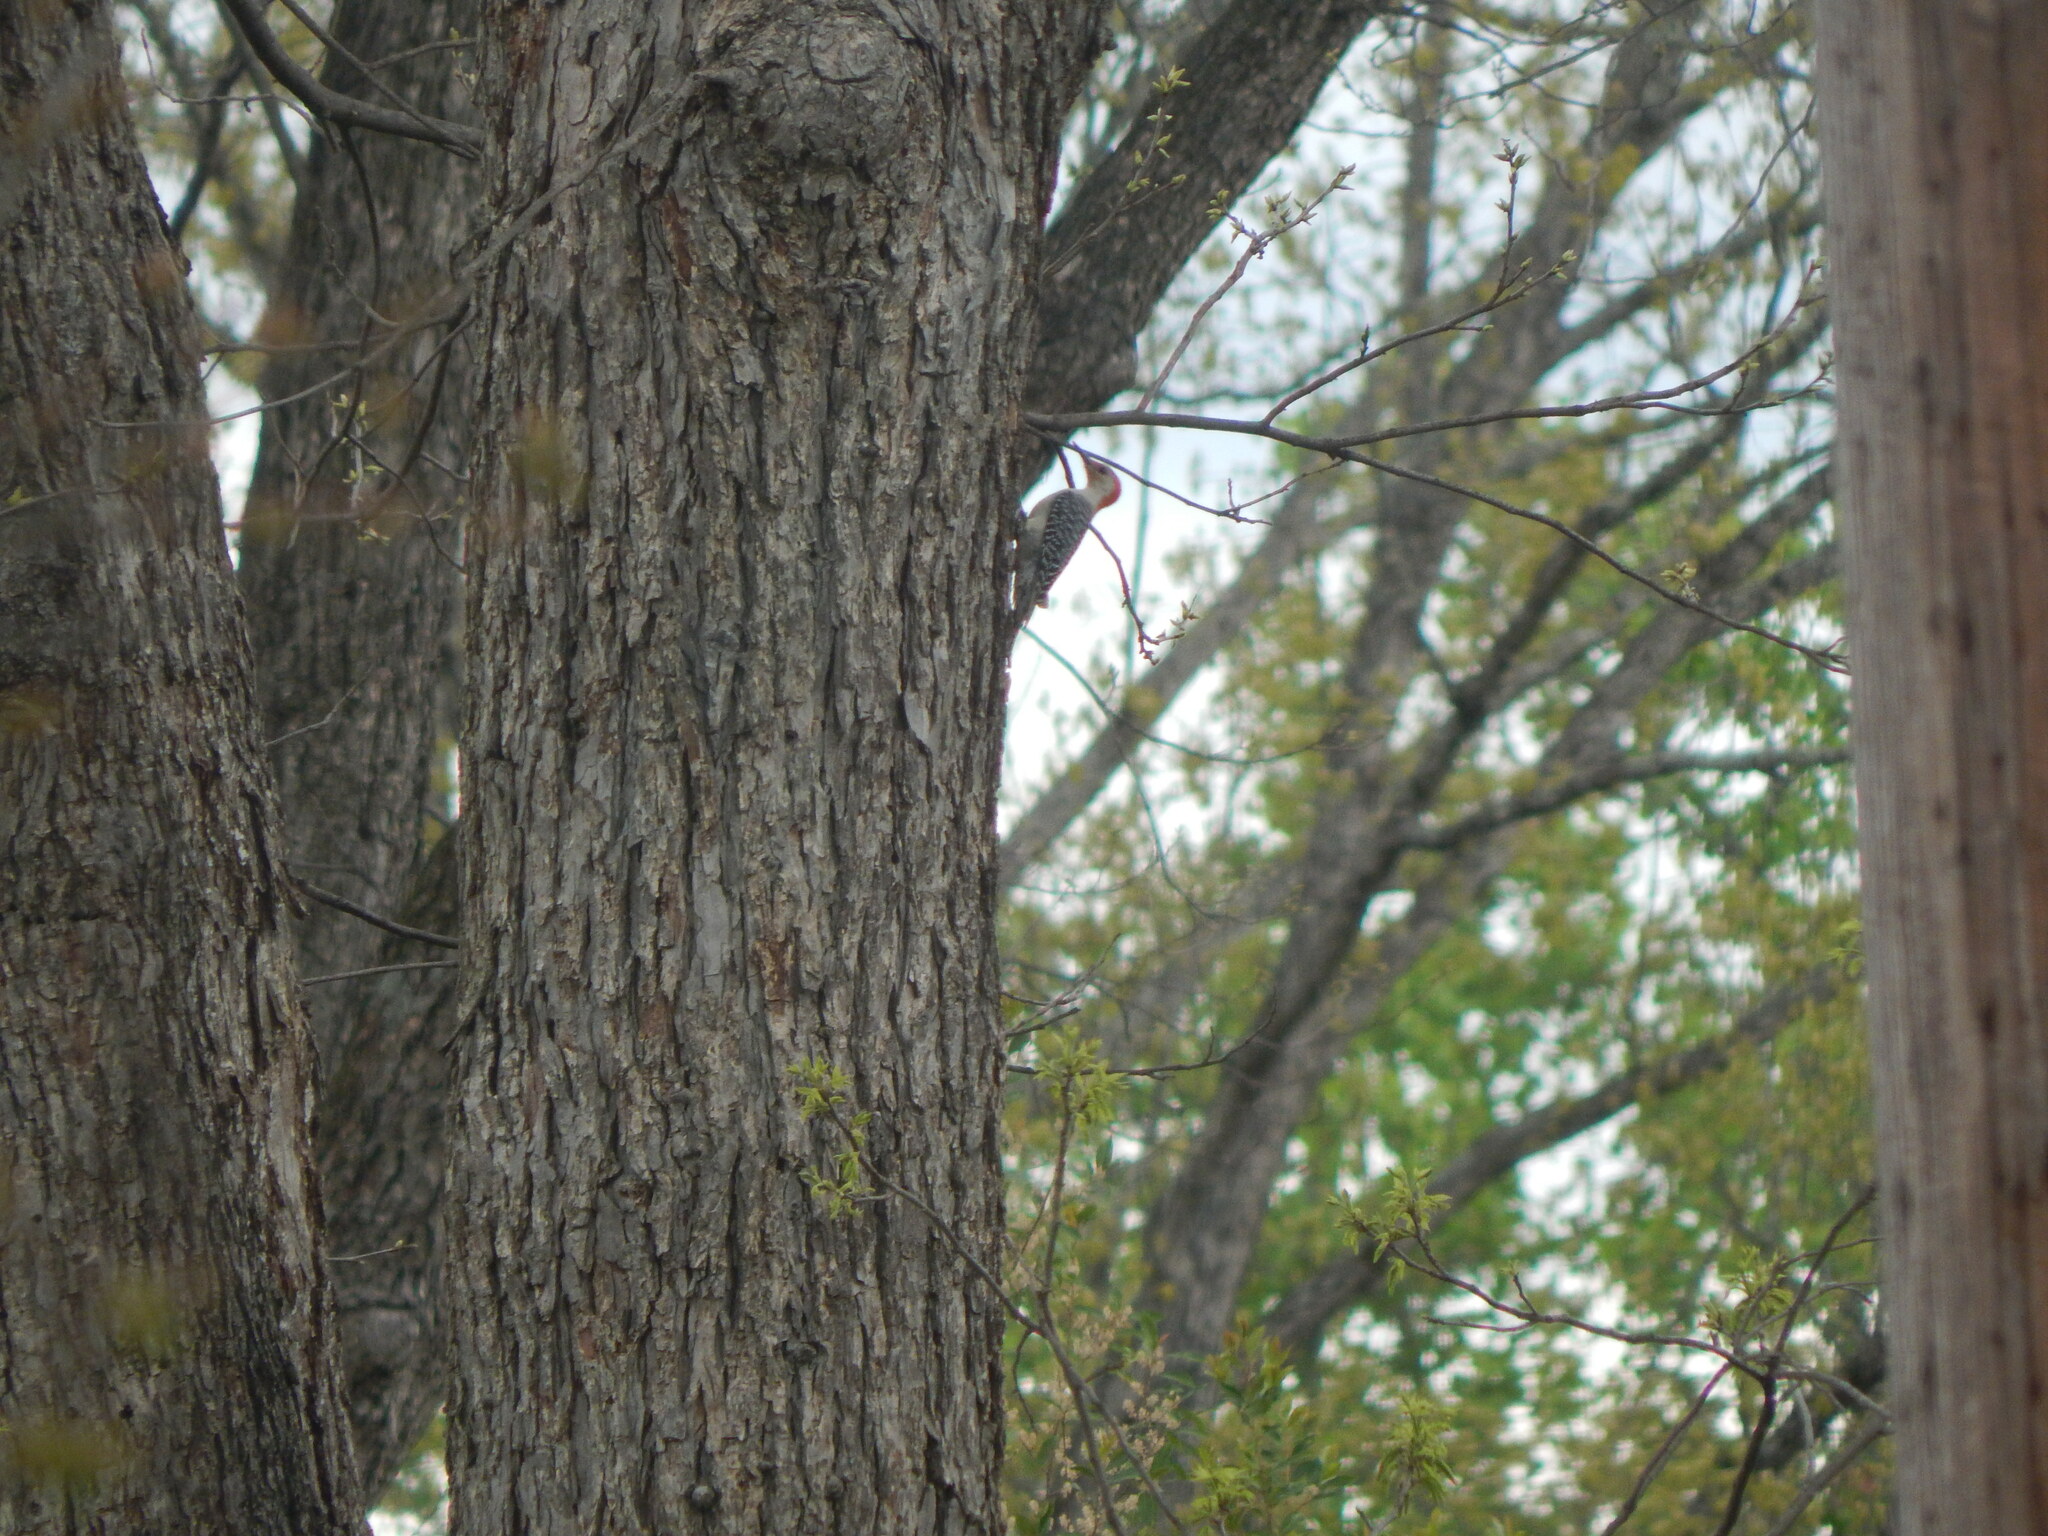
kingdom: Animalia
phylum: Chordata
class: Aves
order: Piciformes
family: Picidae
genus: Melanerpes
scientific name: Melanerpes carolinus
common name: Red-bellied woodpecker
